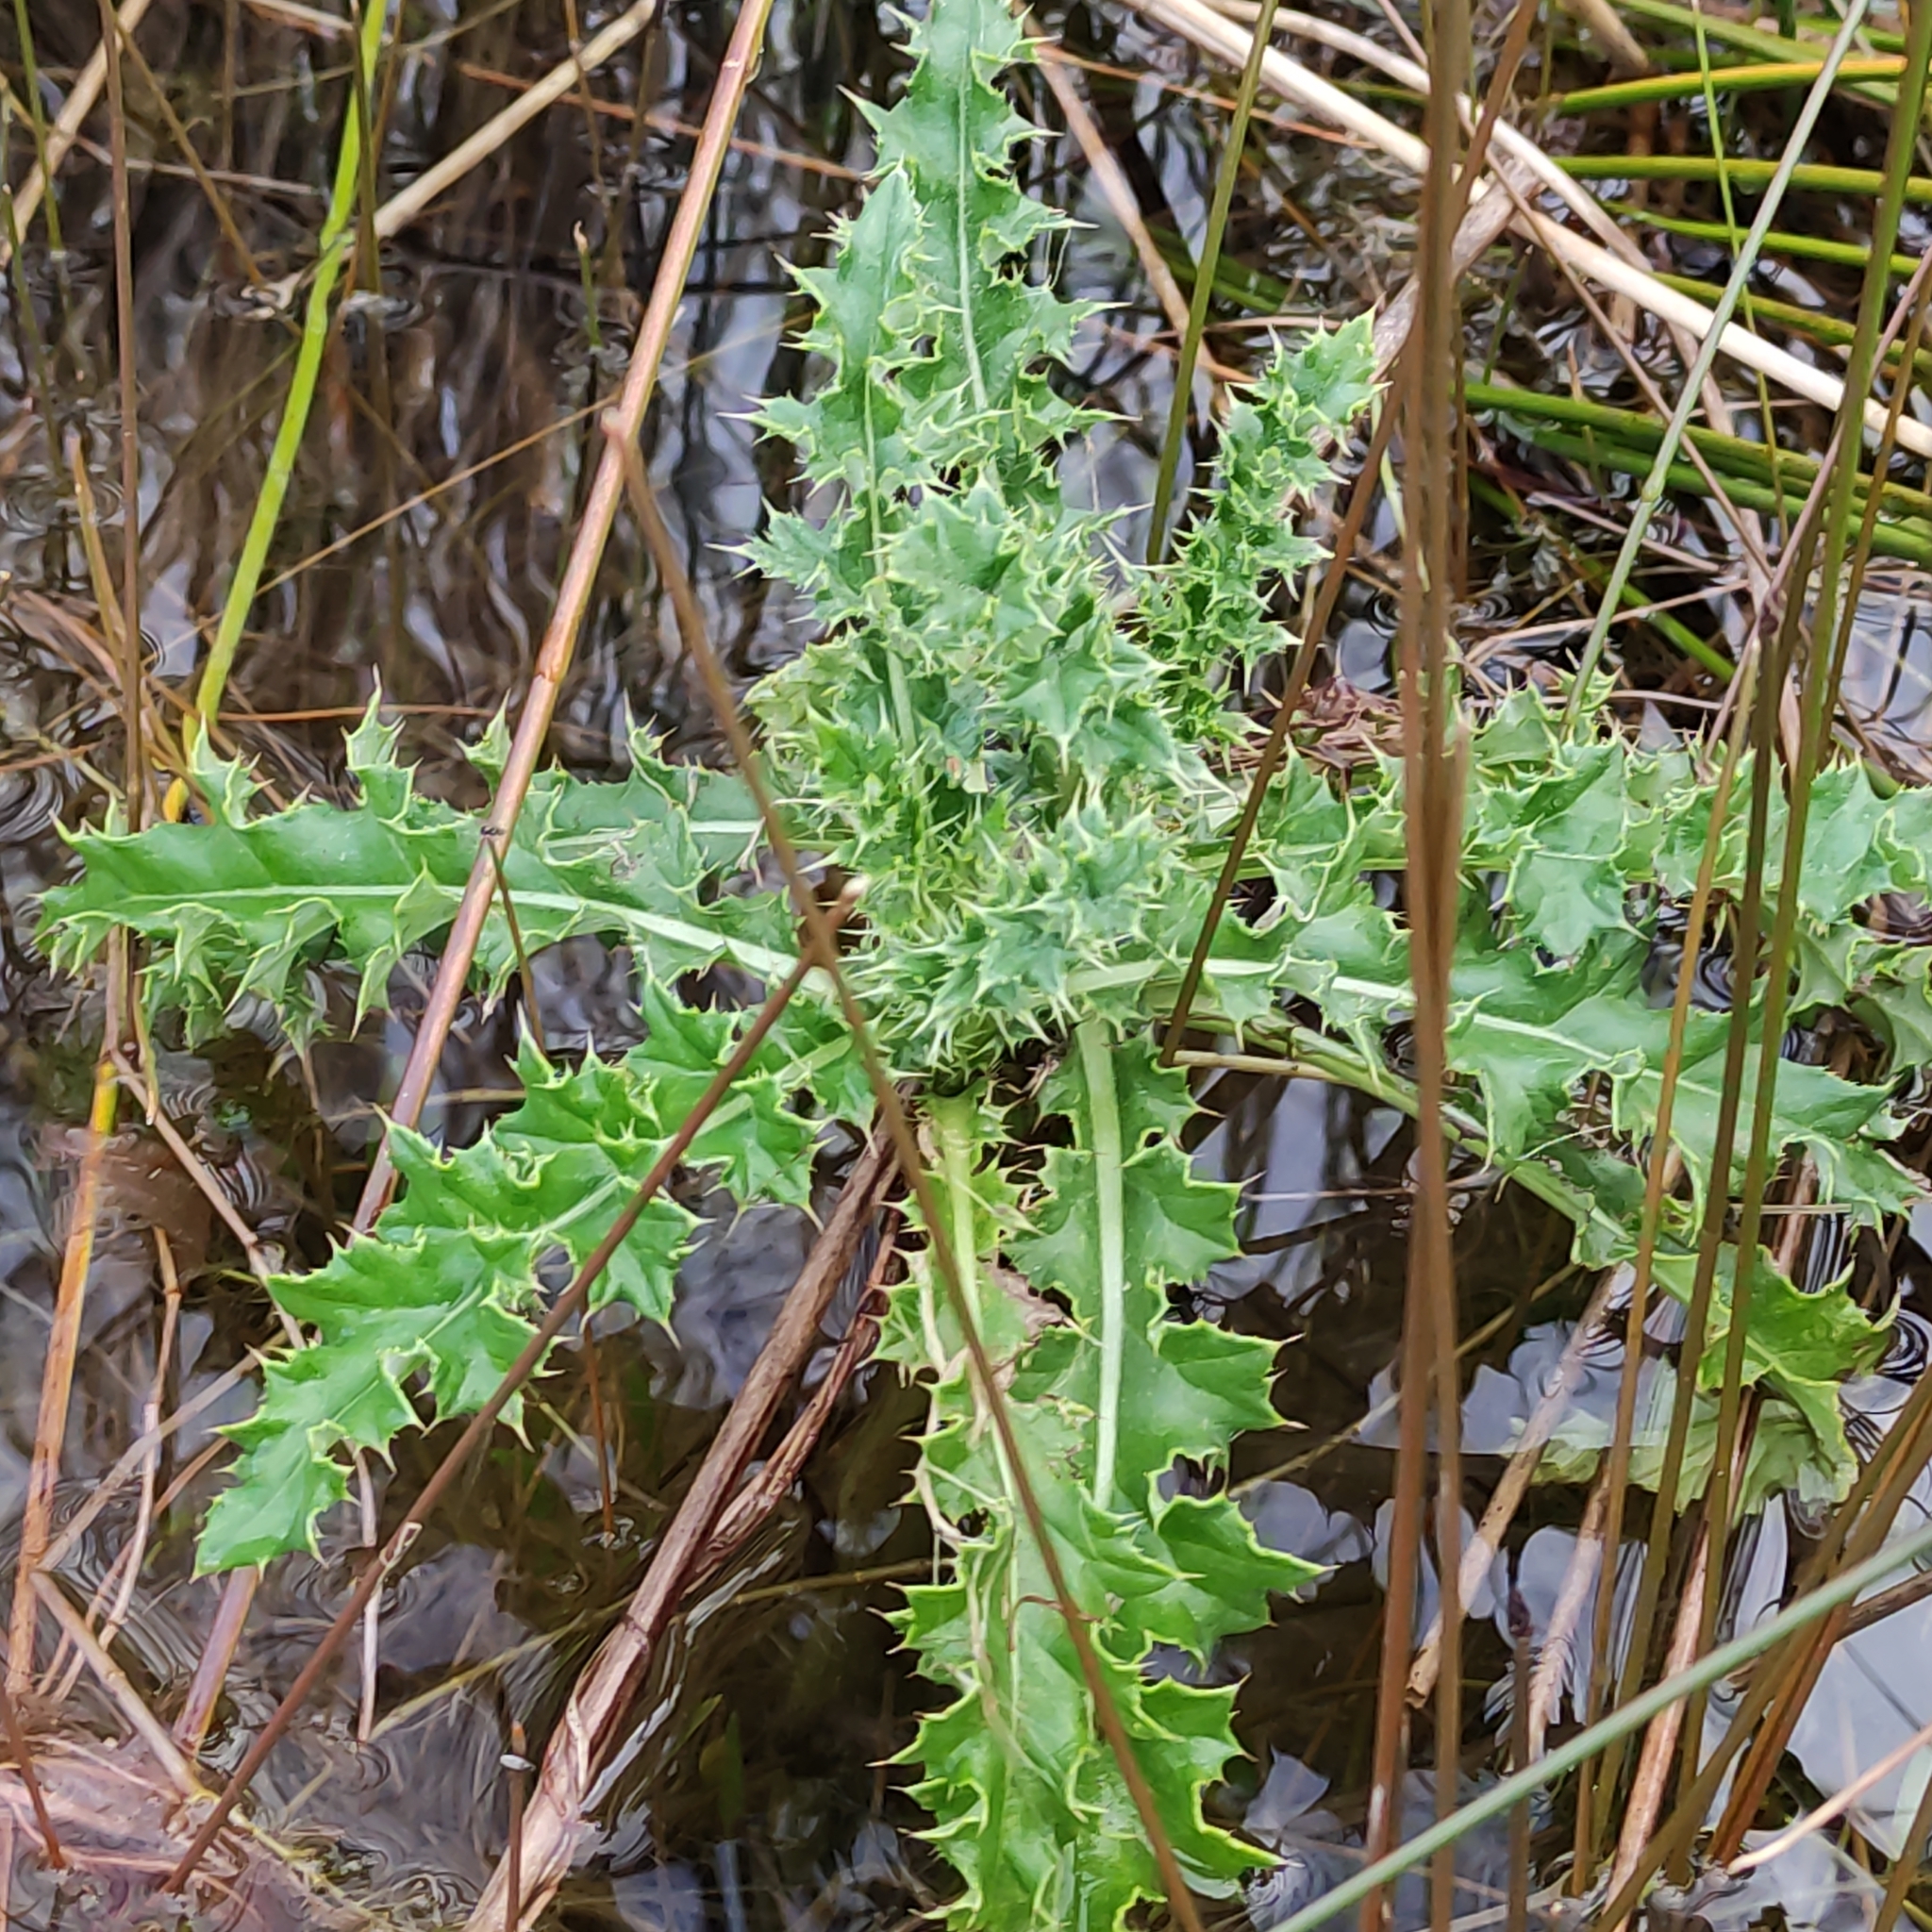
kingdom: Plantae
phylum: Tracheophyta
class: Magnoliopsida
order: Asterales
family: Asteraceae
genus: Cirsium
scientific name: Cirsium arvense
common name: Creeping thistle
